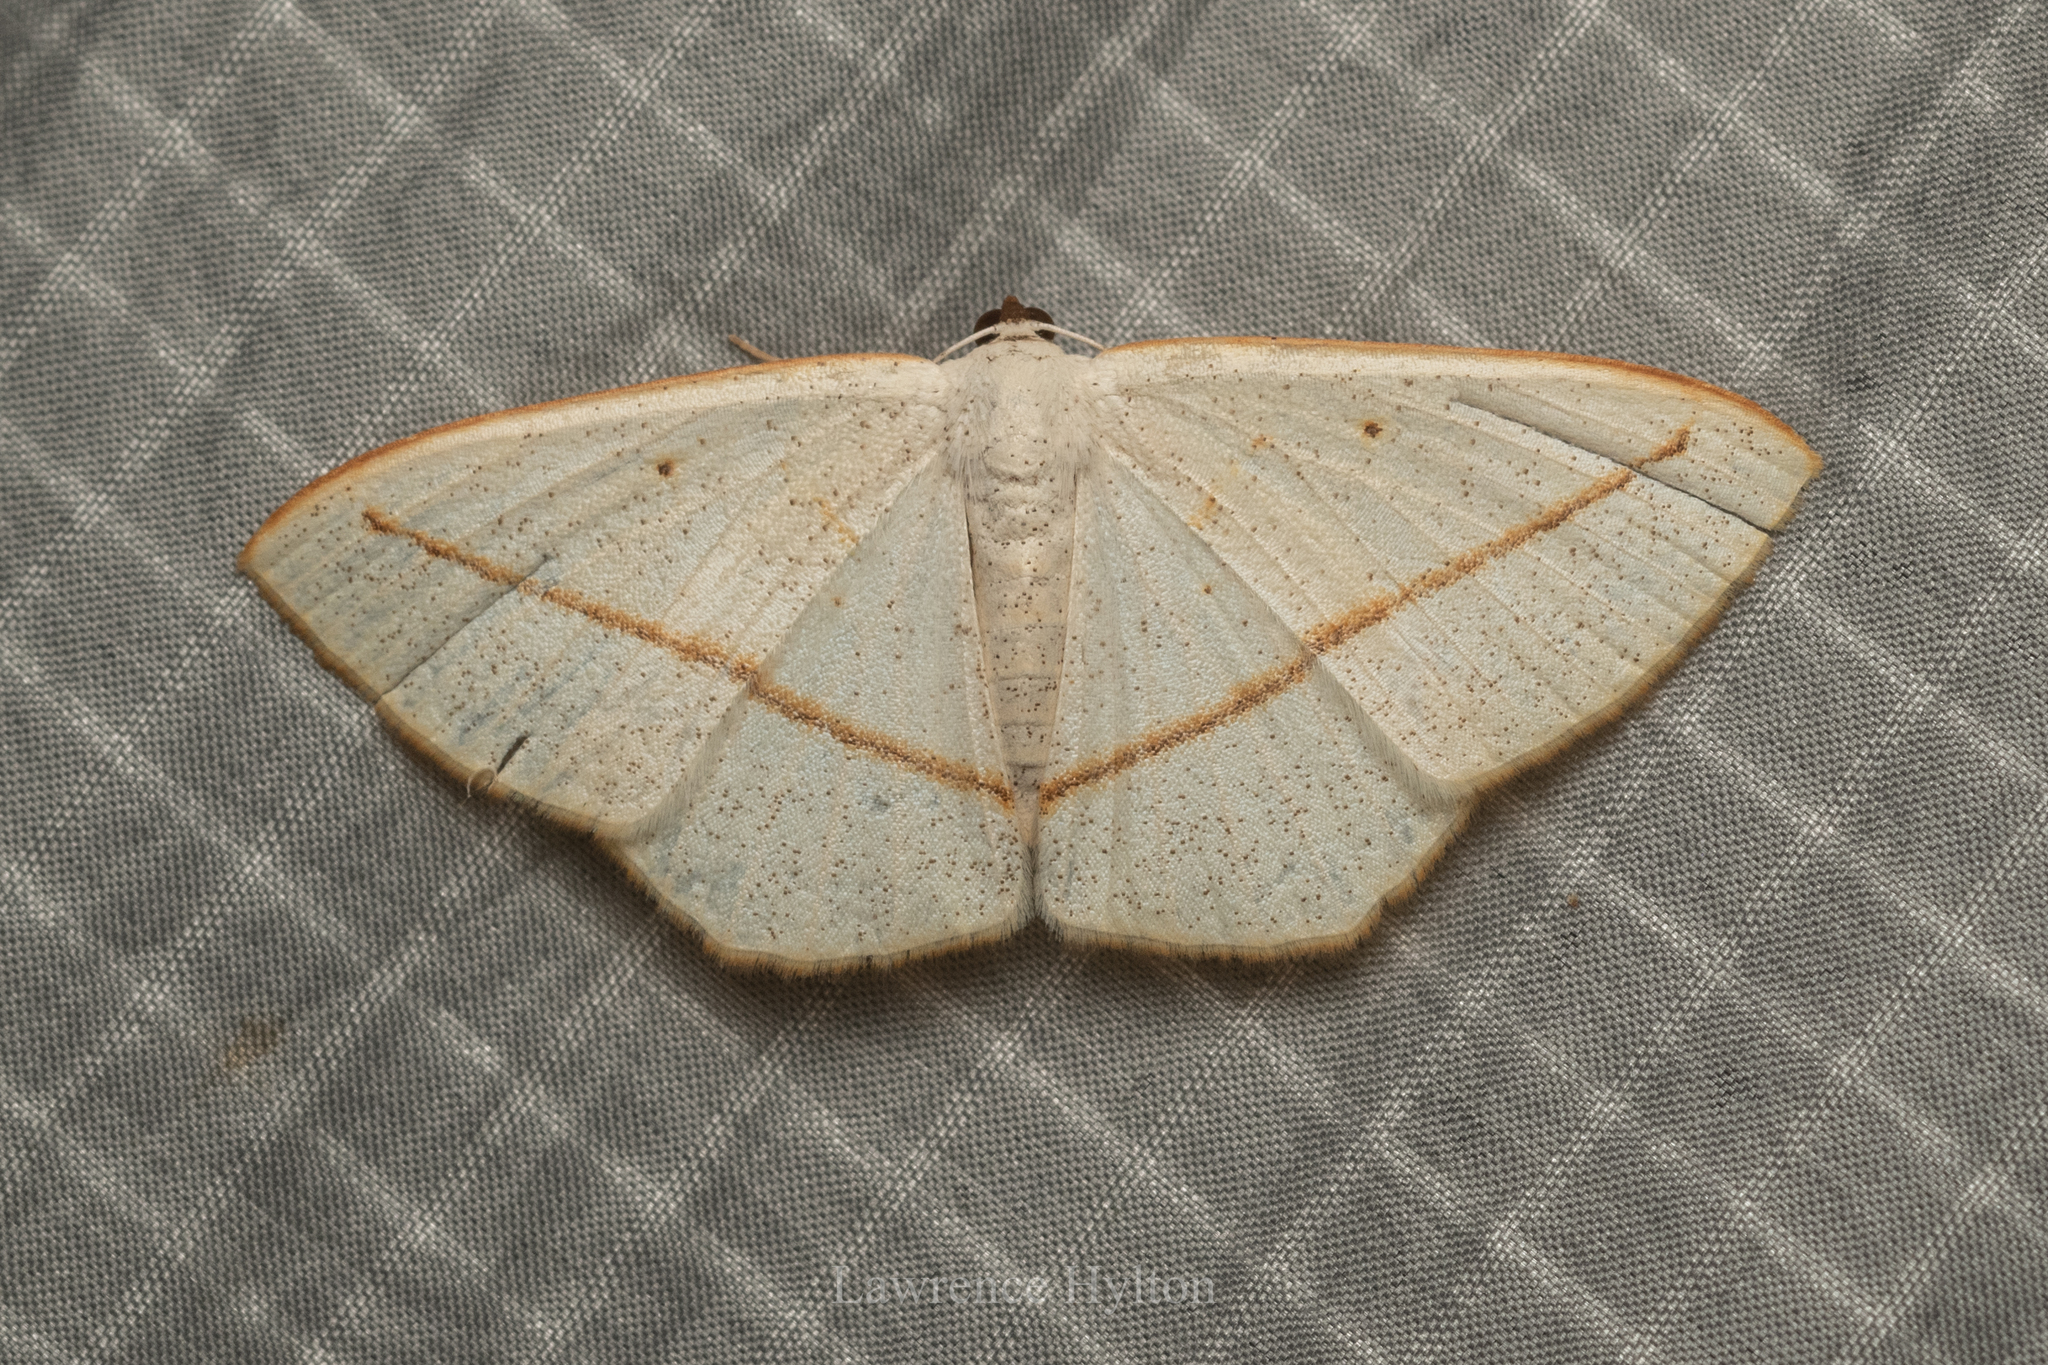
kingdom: Animalia
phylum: Arthropoda
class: Insecta
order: Lepidoptera
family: Geometridae
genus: Lomographa
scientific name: Lomographa inamata
